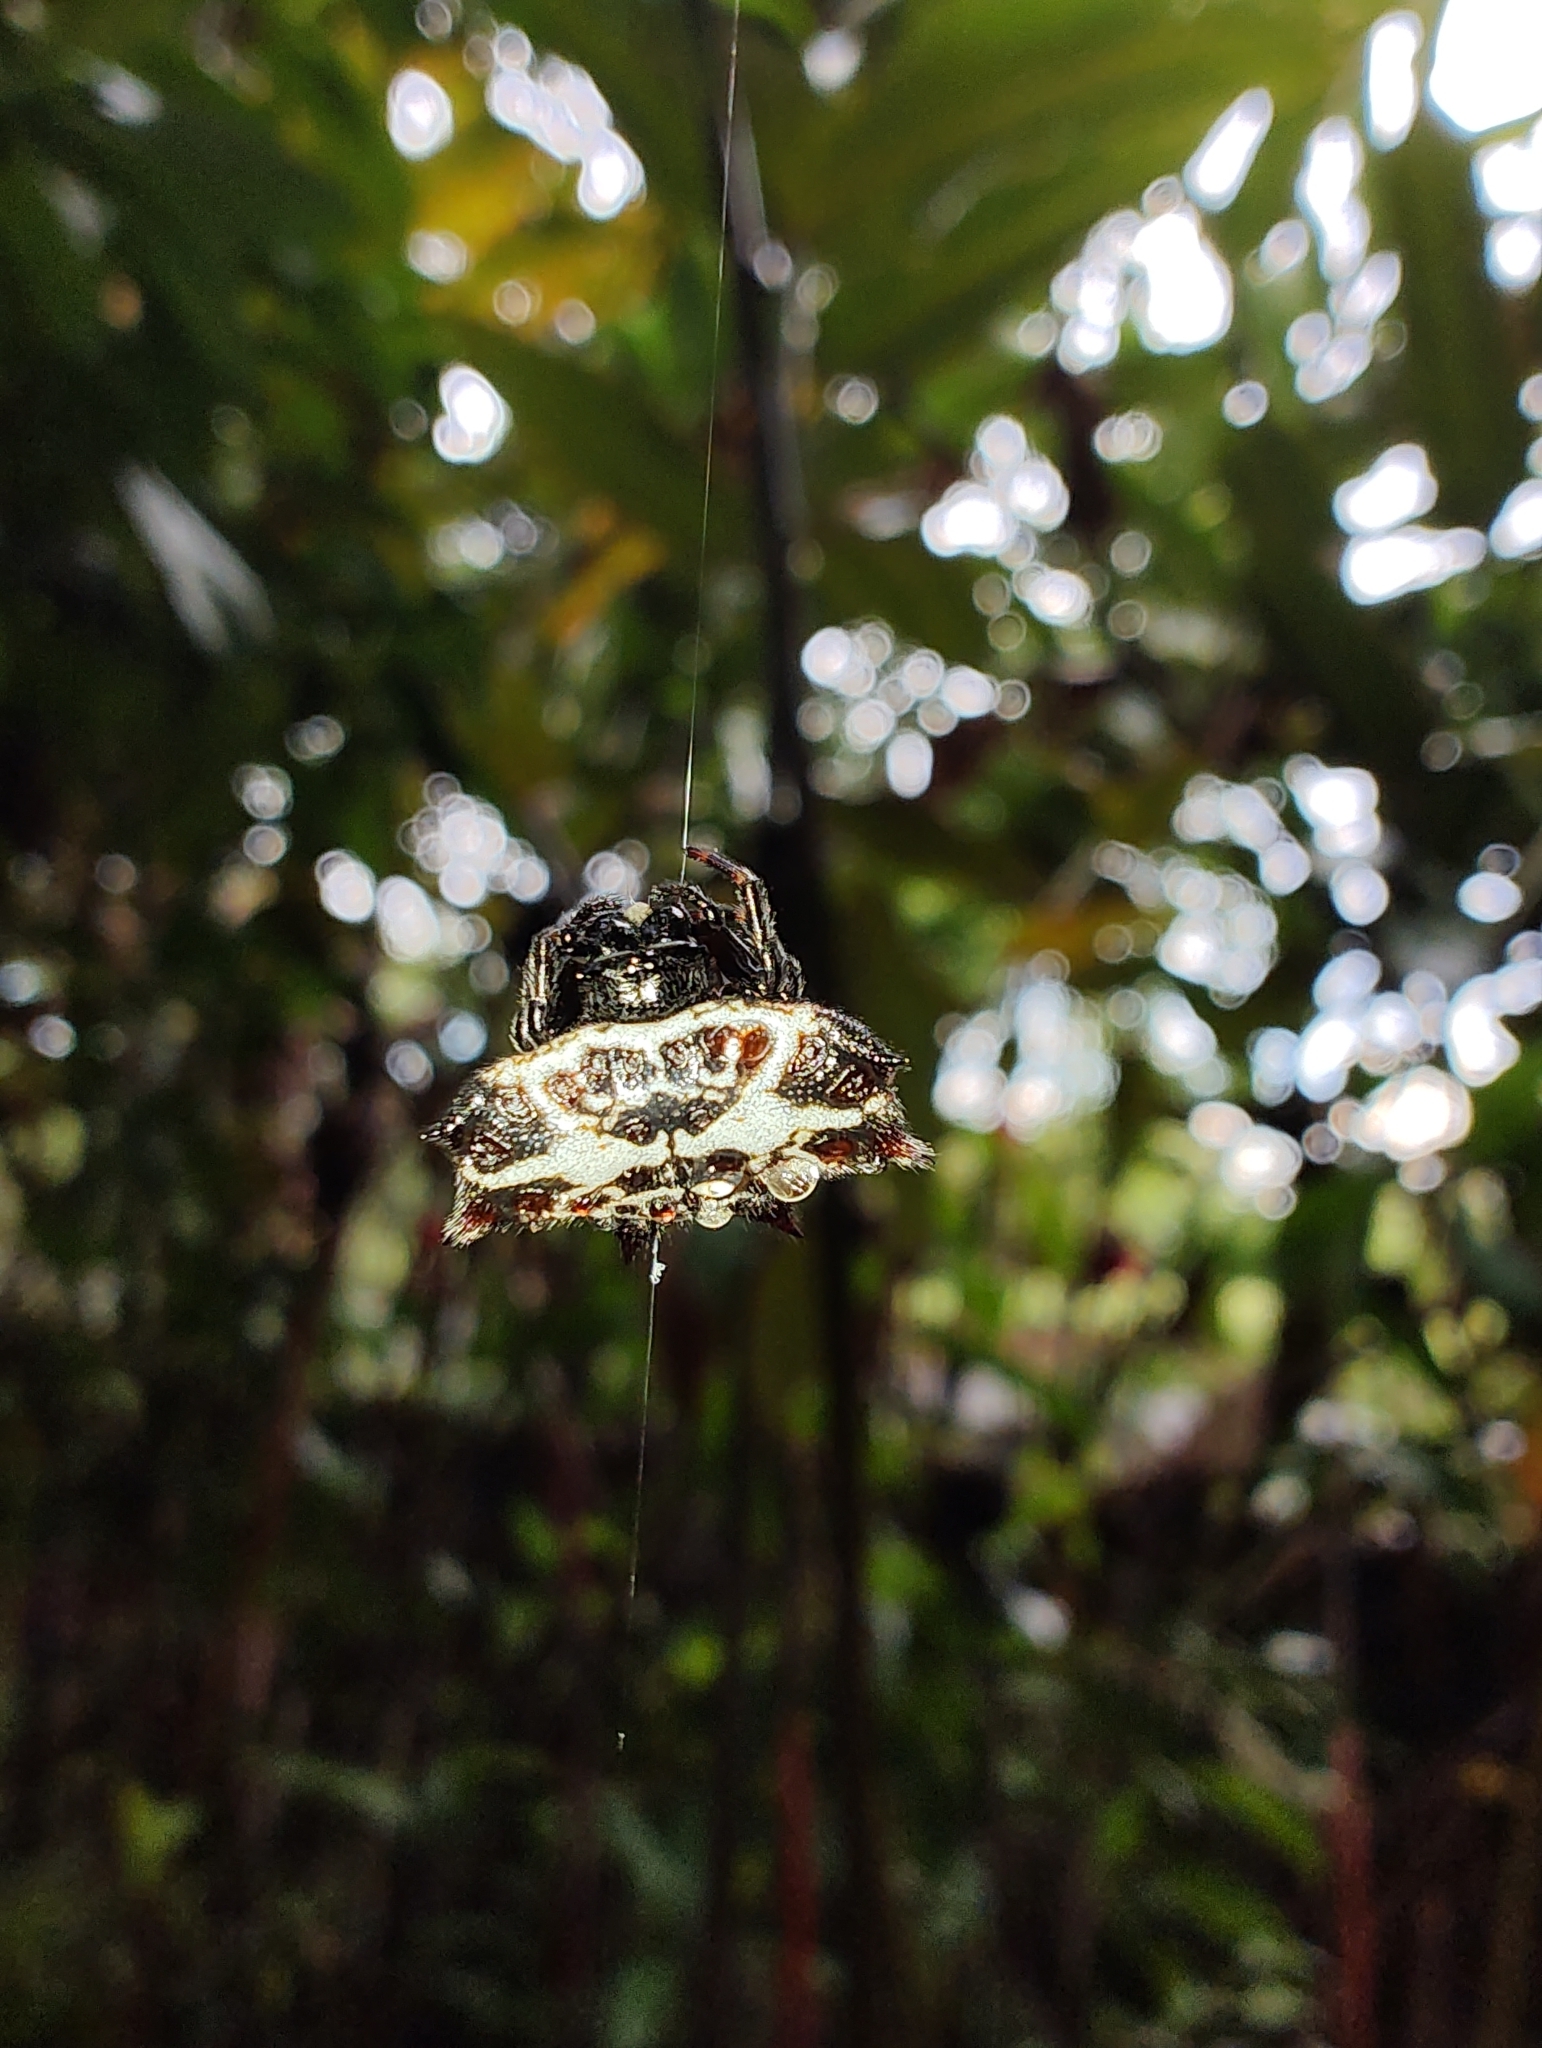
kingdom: Animalia
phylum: Arthropoda
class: Arachnida
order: Araneae
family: Araneidae
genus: Gasteracantha
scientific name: Gasteracantha cancriformis
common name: Orb weavers
